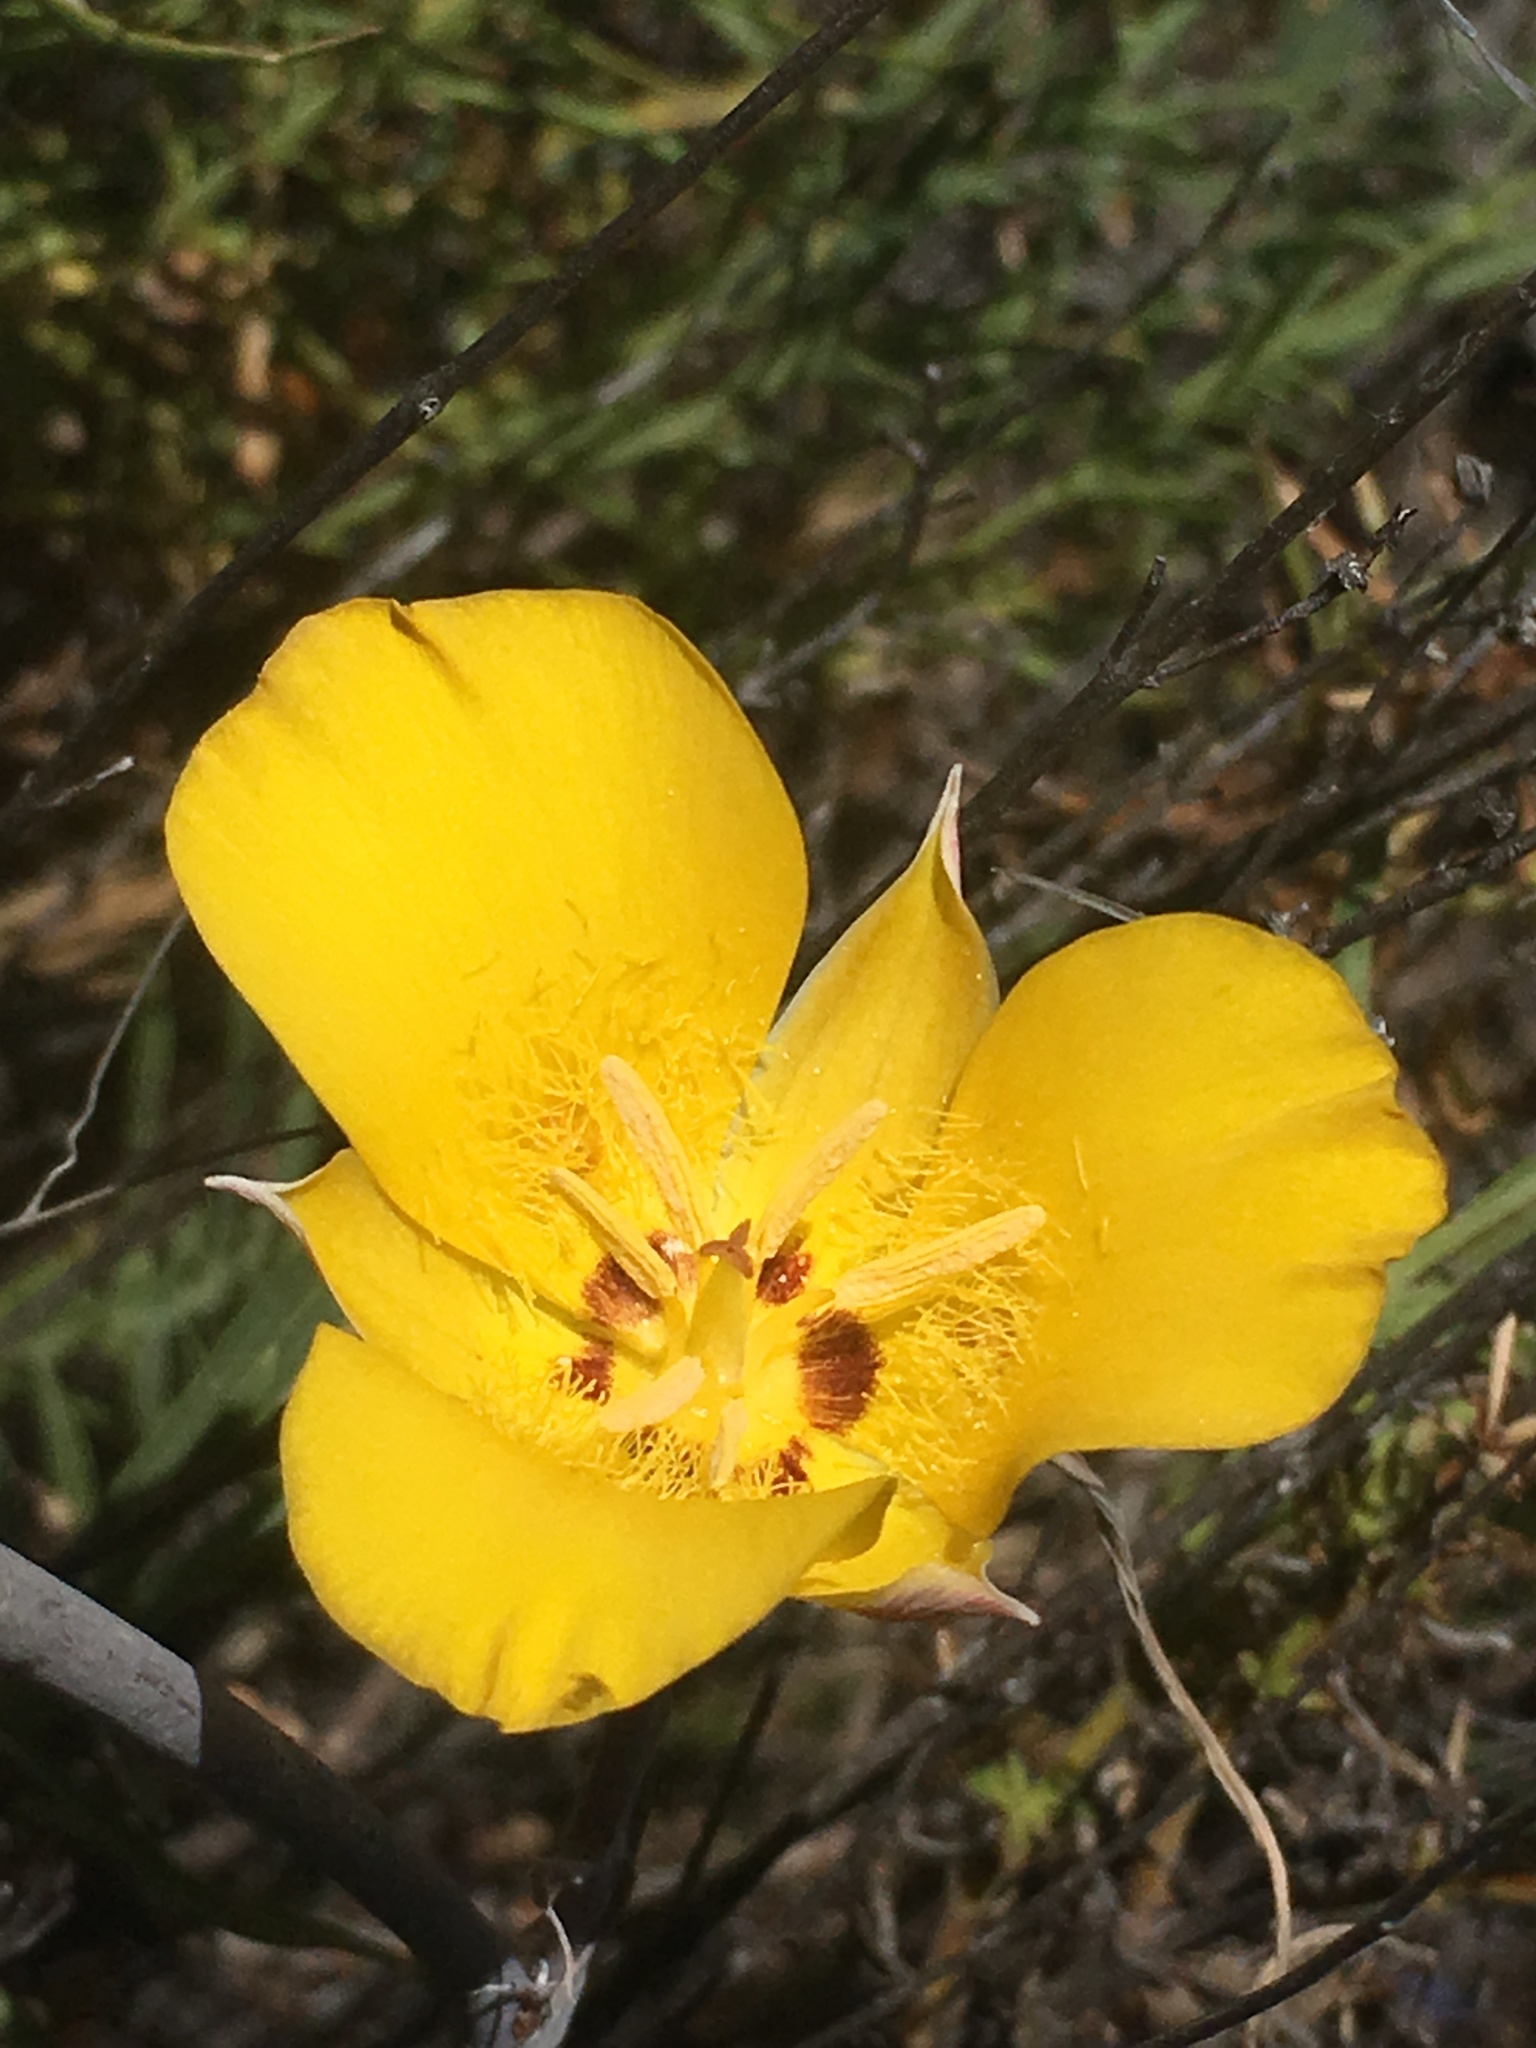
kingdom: Plantae
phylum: Tracheophyta
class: Liliopsida
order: Liliales
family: Liliaceae
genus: Calochortus
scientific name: Calochortus clavatus
